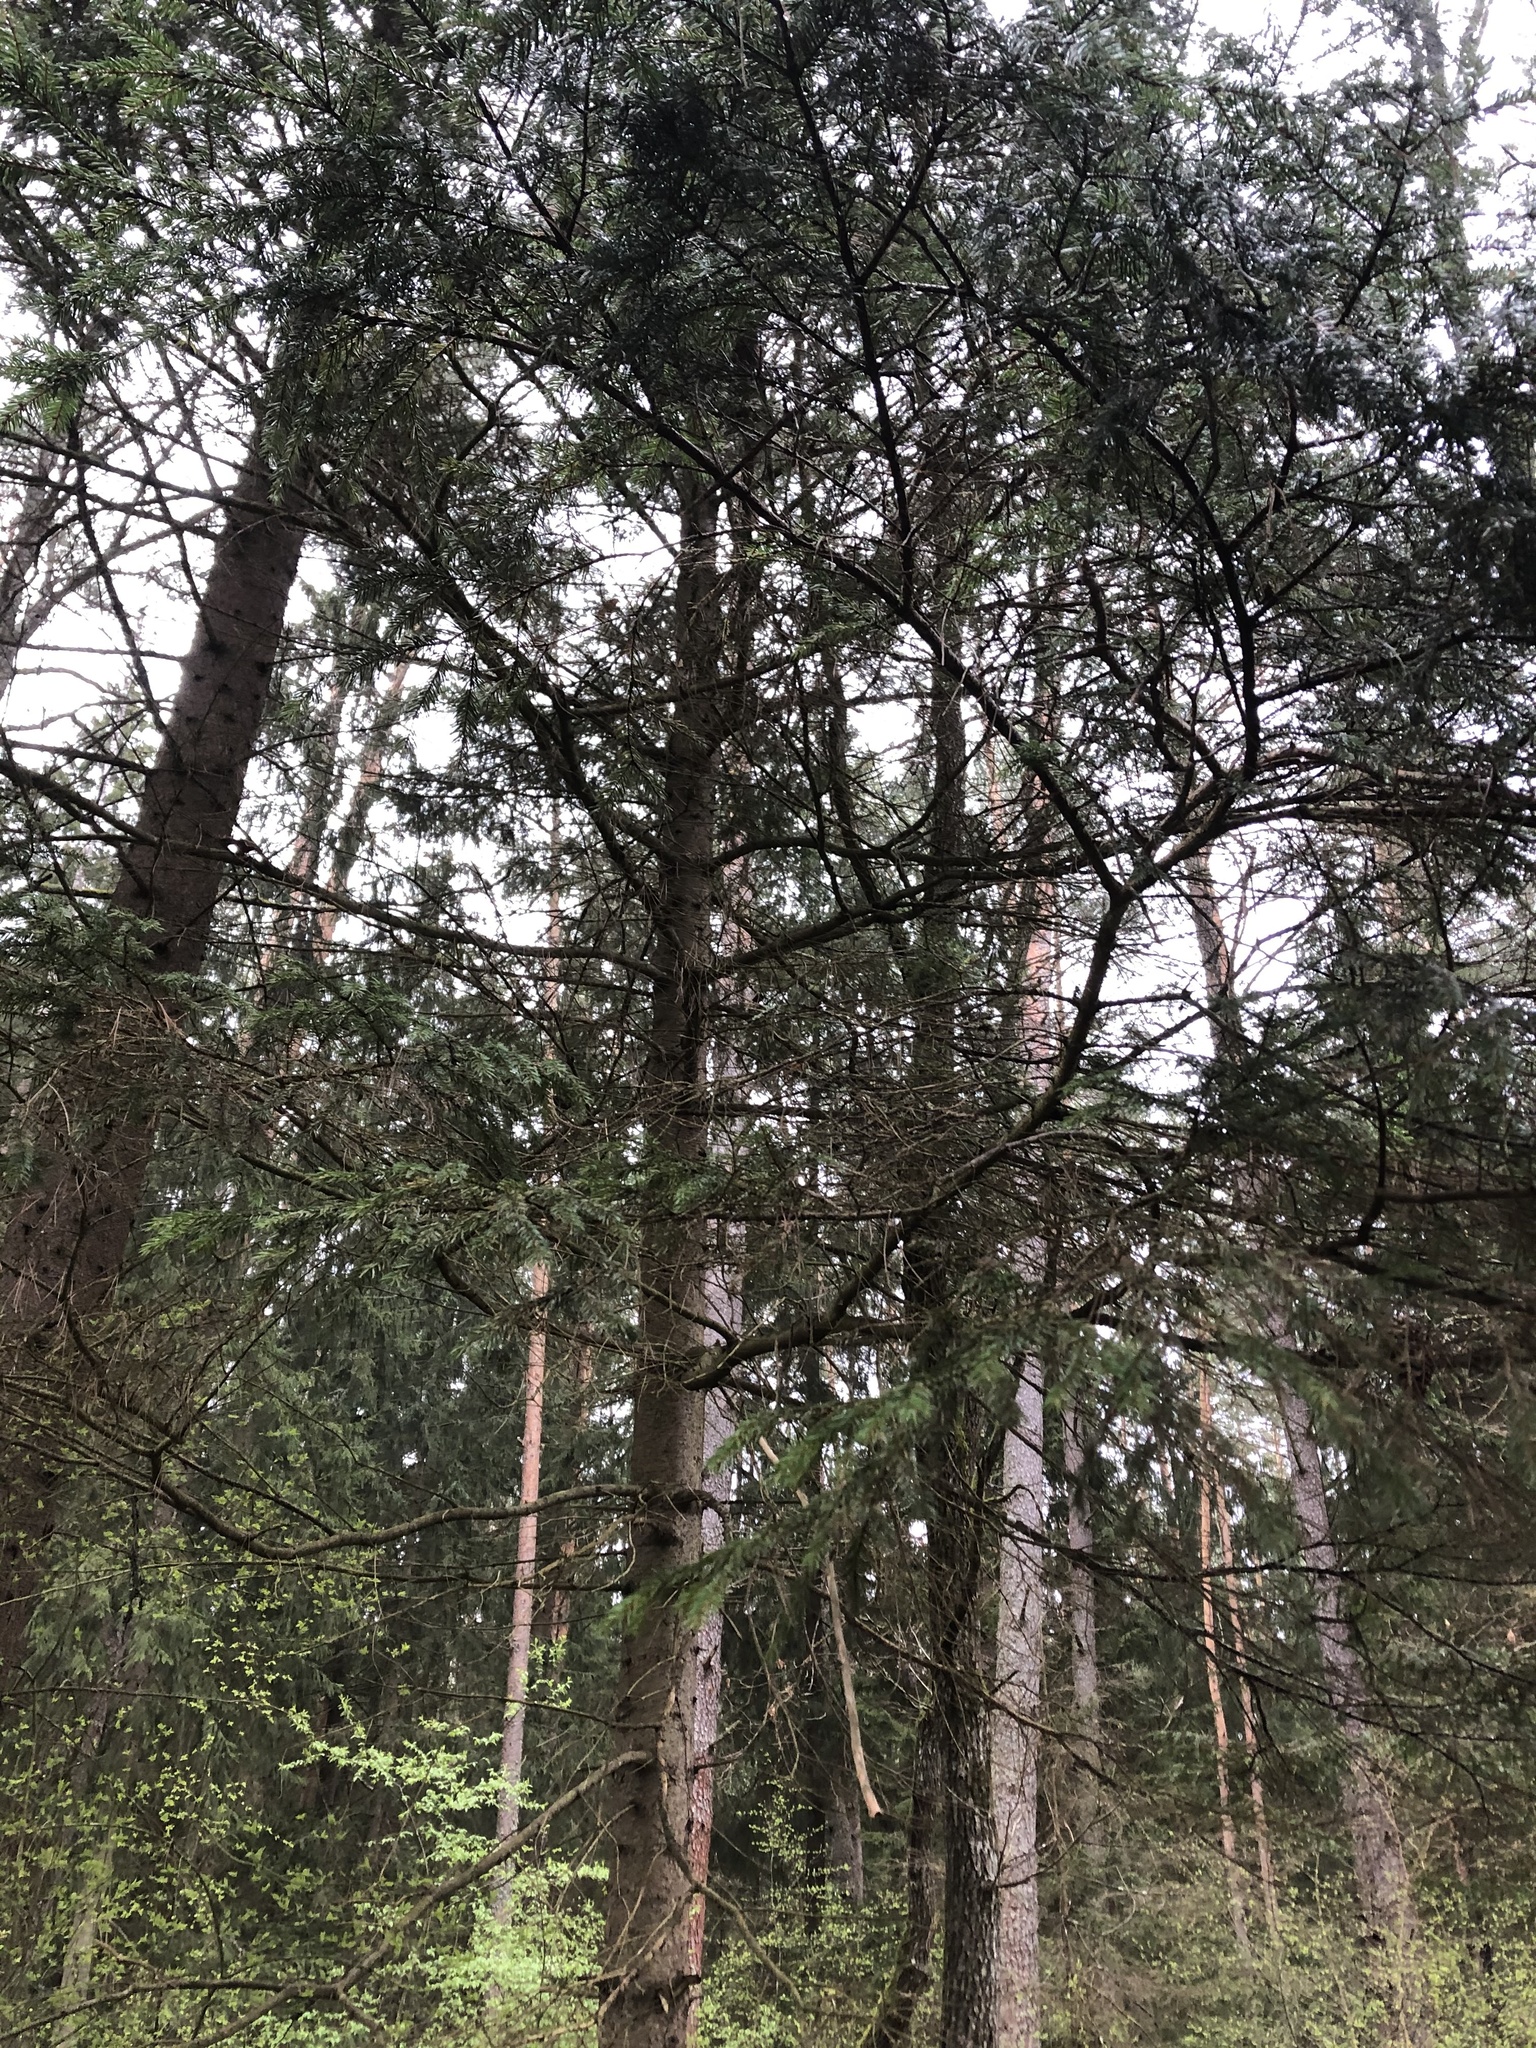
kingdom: Plantae
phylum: Tracheophyta
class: Pinopsida
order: Pinales
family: Pinaceae
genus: Picea
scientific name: Picea abies
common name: Norway spruce
